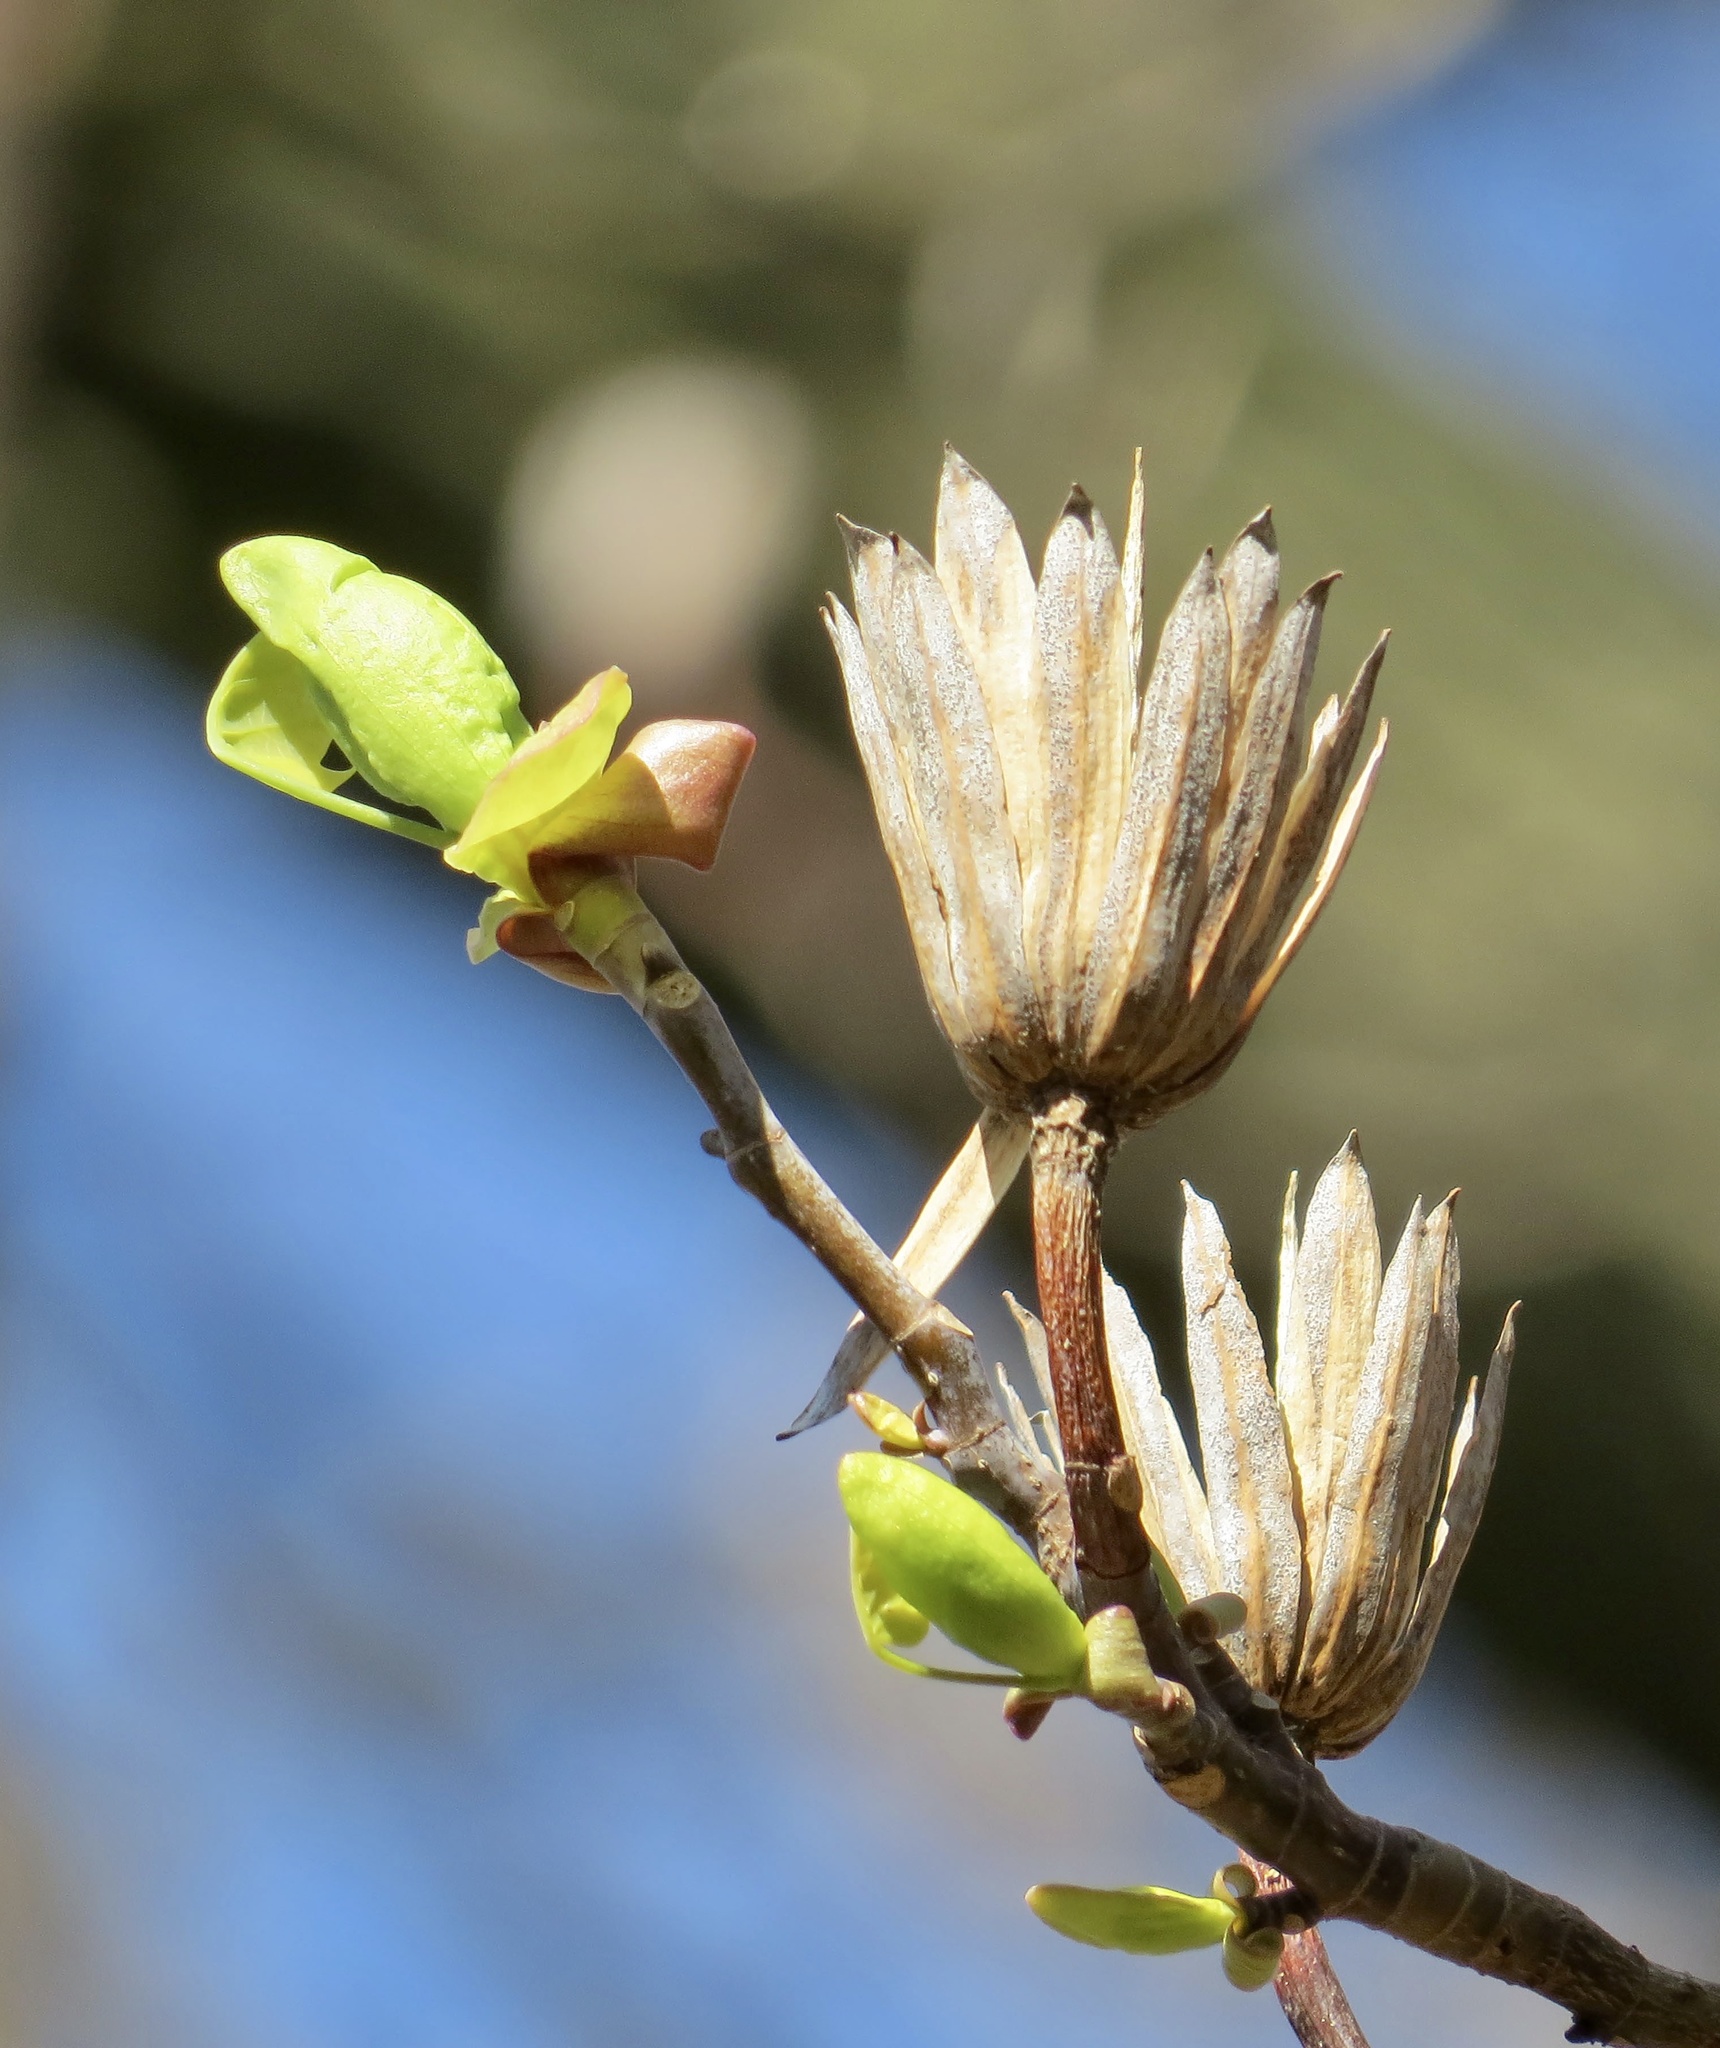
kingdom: Plantae
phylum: Tracheophyta
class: Magnoliopsida
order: Magnoliales
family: Magnoliaceae
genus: Liriodendron
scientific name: Liriodendron tulipifera
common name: Tulip tree
